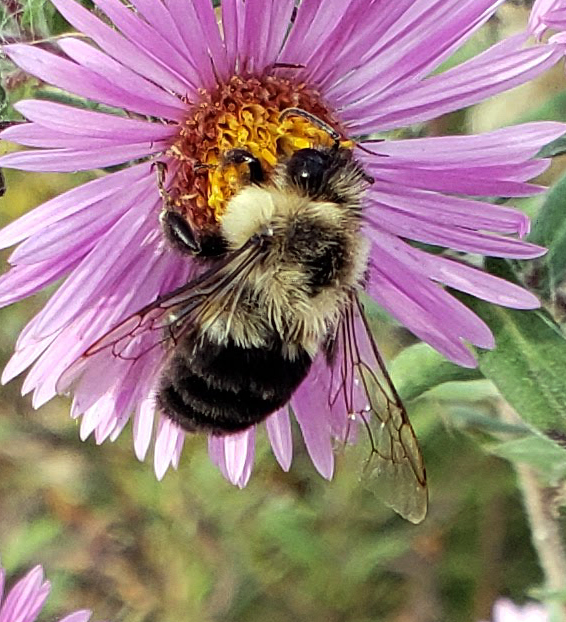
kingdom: Animalia
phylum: Arthropoda
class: Insecta
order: Hymenoptera
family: Apidae
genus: Bombus
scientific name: Bombus impatiens
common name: Common eastern bumble bee
